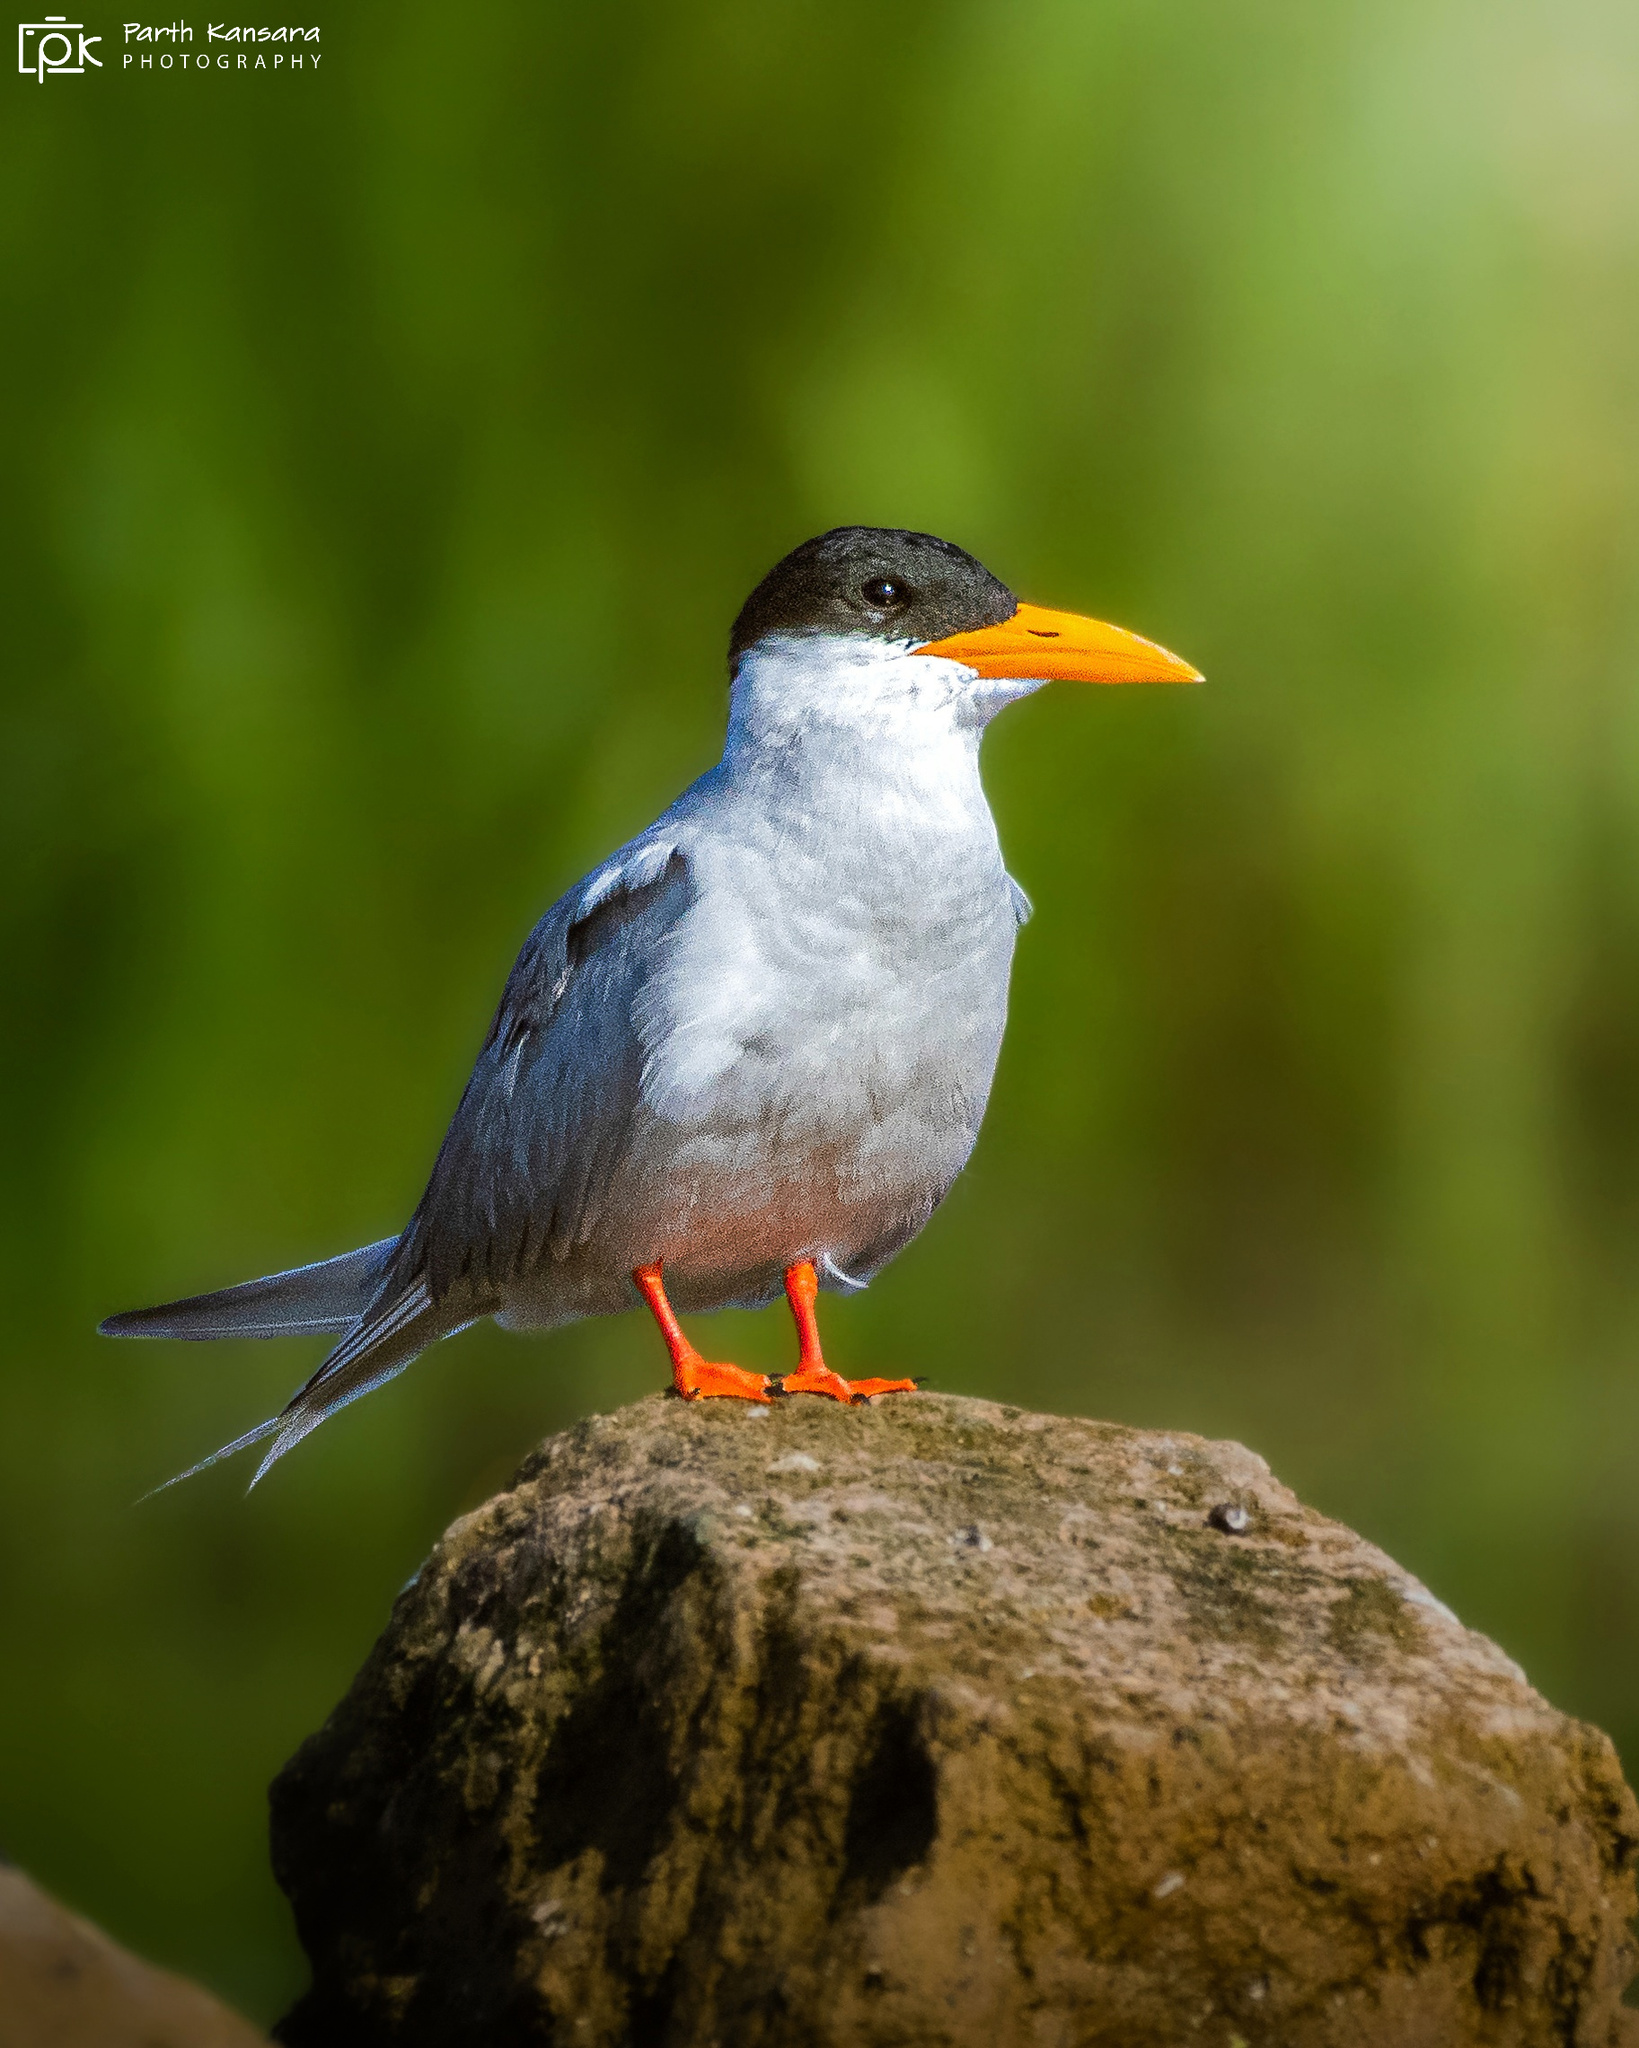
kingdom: Animalia
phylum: Chordata
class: Aves
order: Charadriiformes
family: Laridae
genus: Sterna
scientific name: Sterna aurantia
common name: River tern
